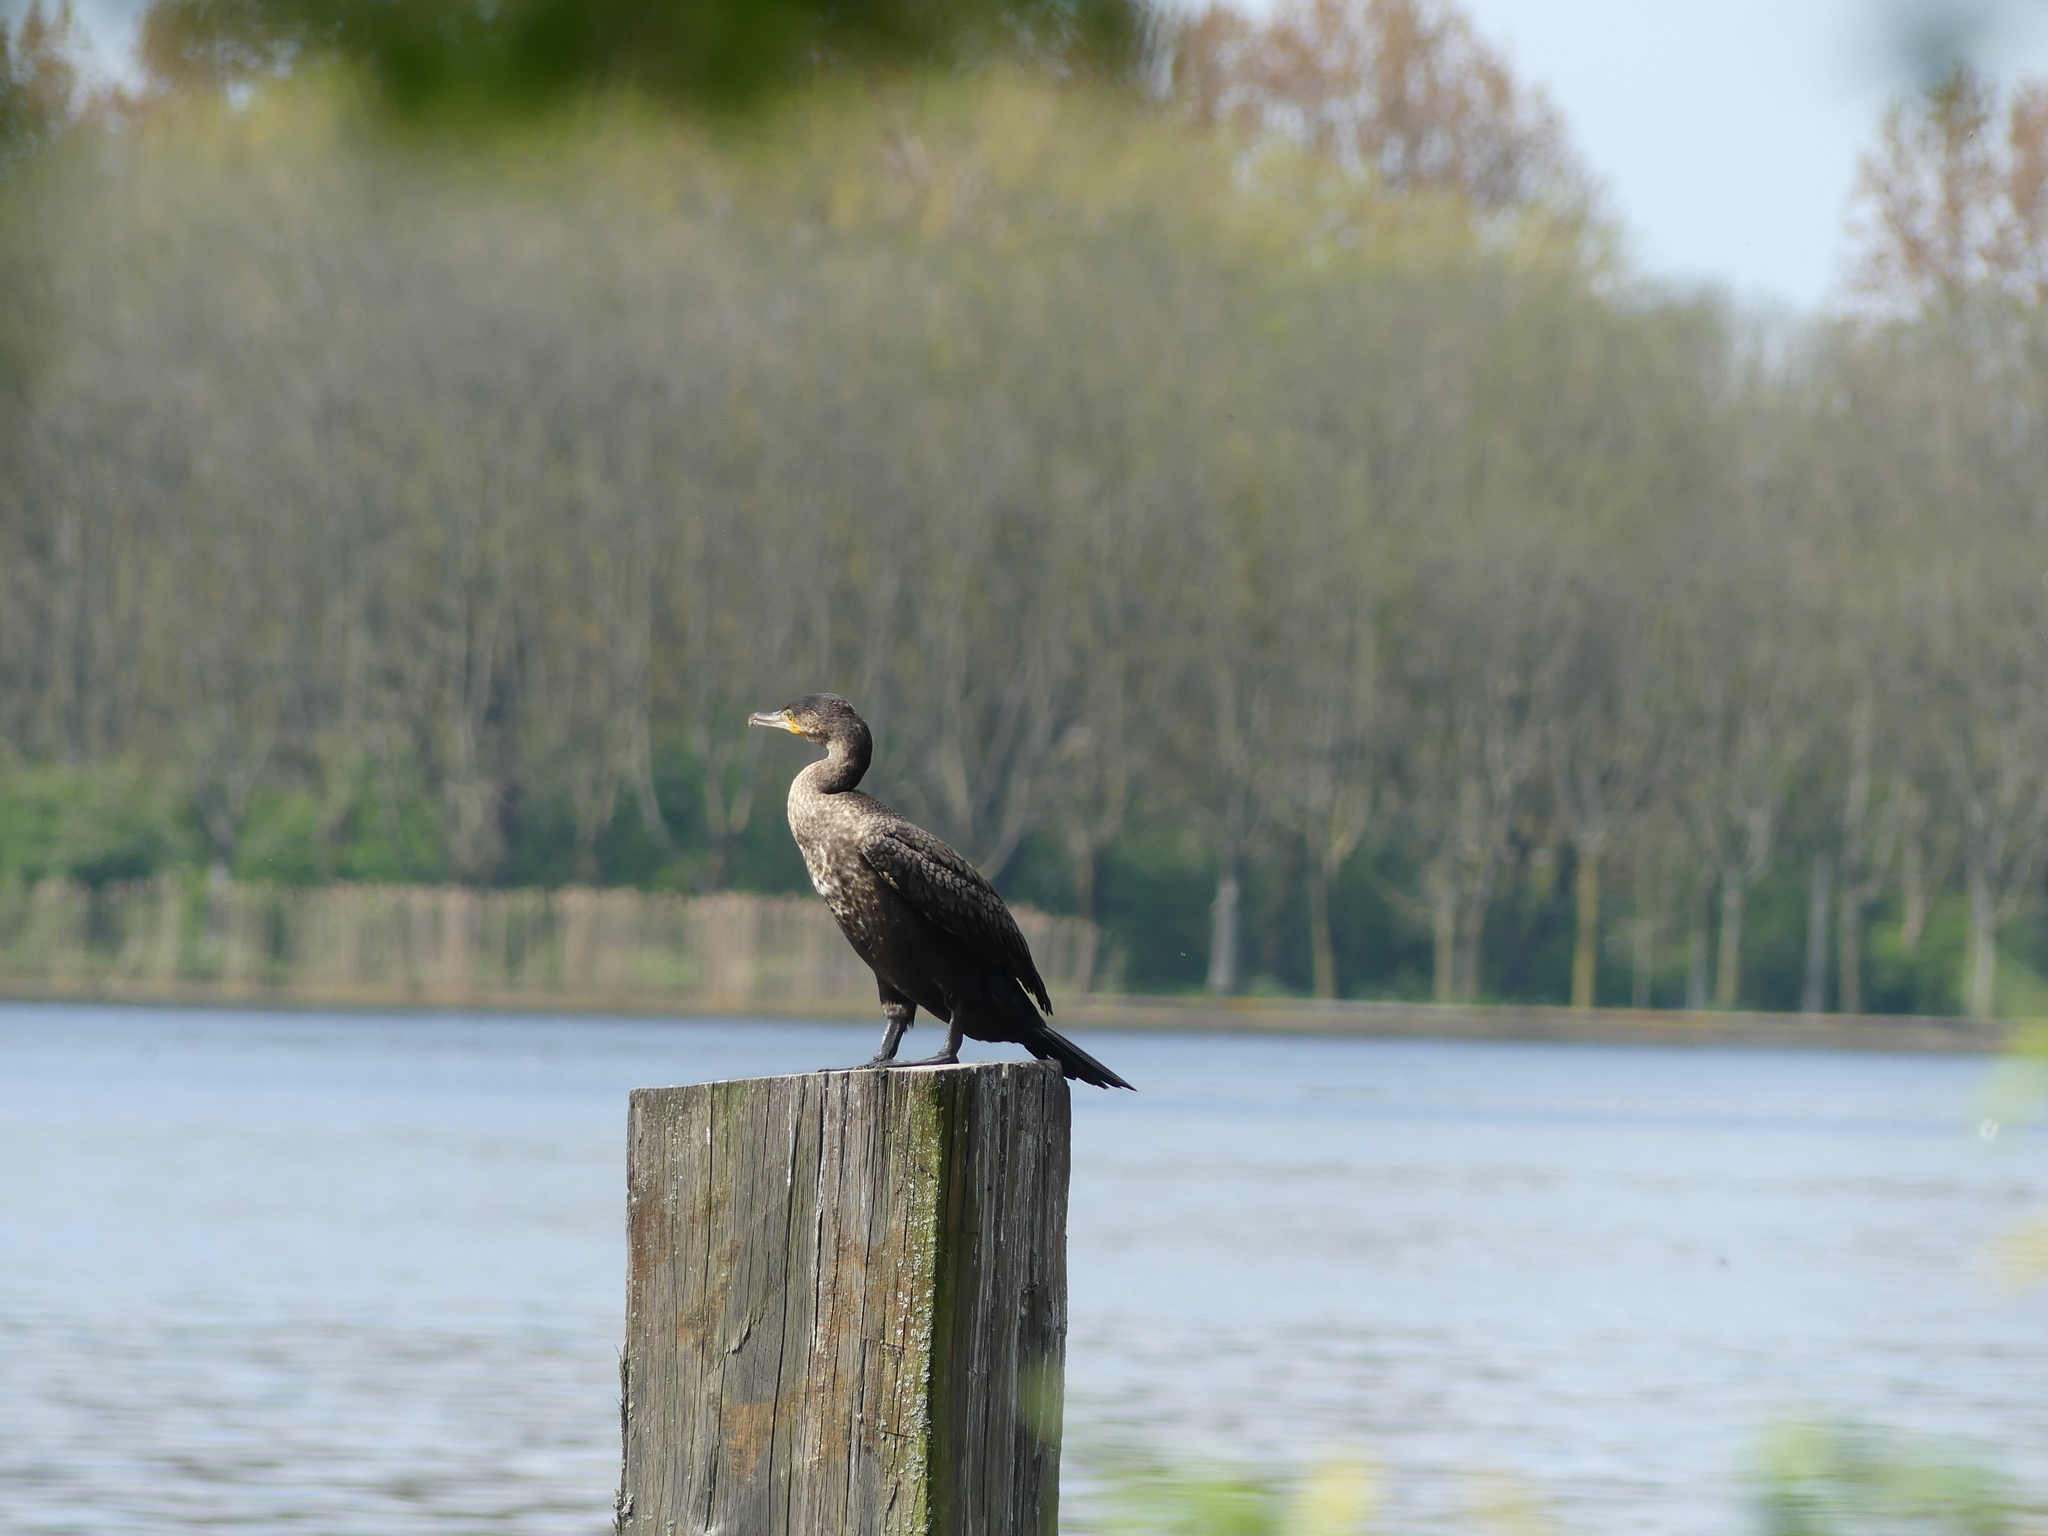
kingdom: Animalia
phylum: Chordata
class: Aves
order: Suliformes
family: Phalacrocoracidae
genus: Phalacrocorax
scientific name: Phalacrocorax carbo
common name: Great cormorant
